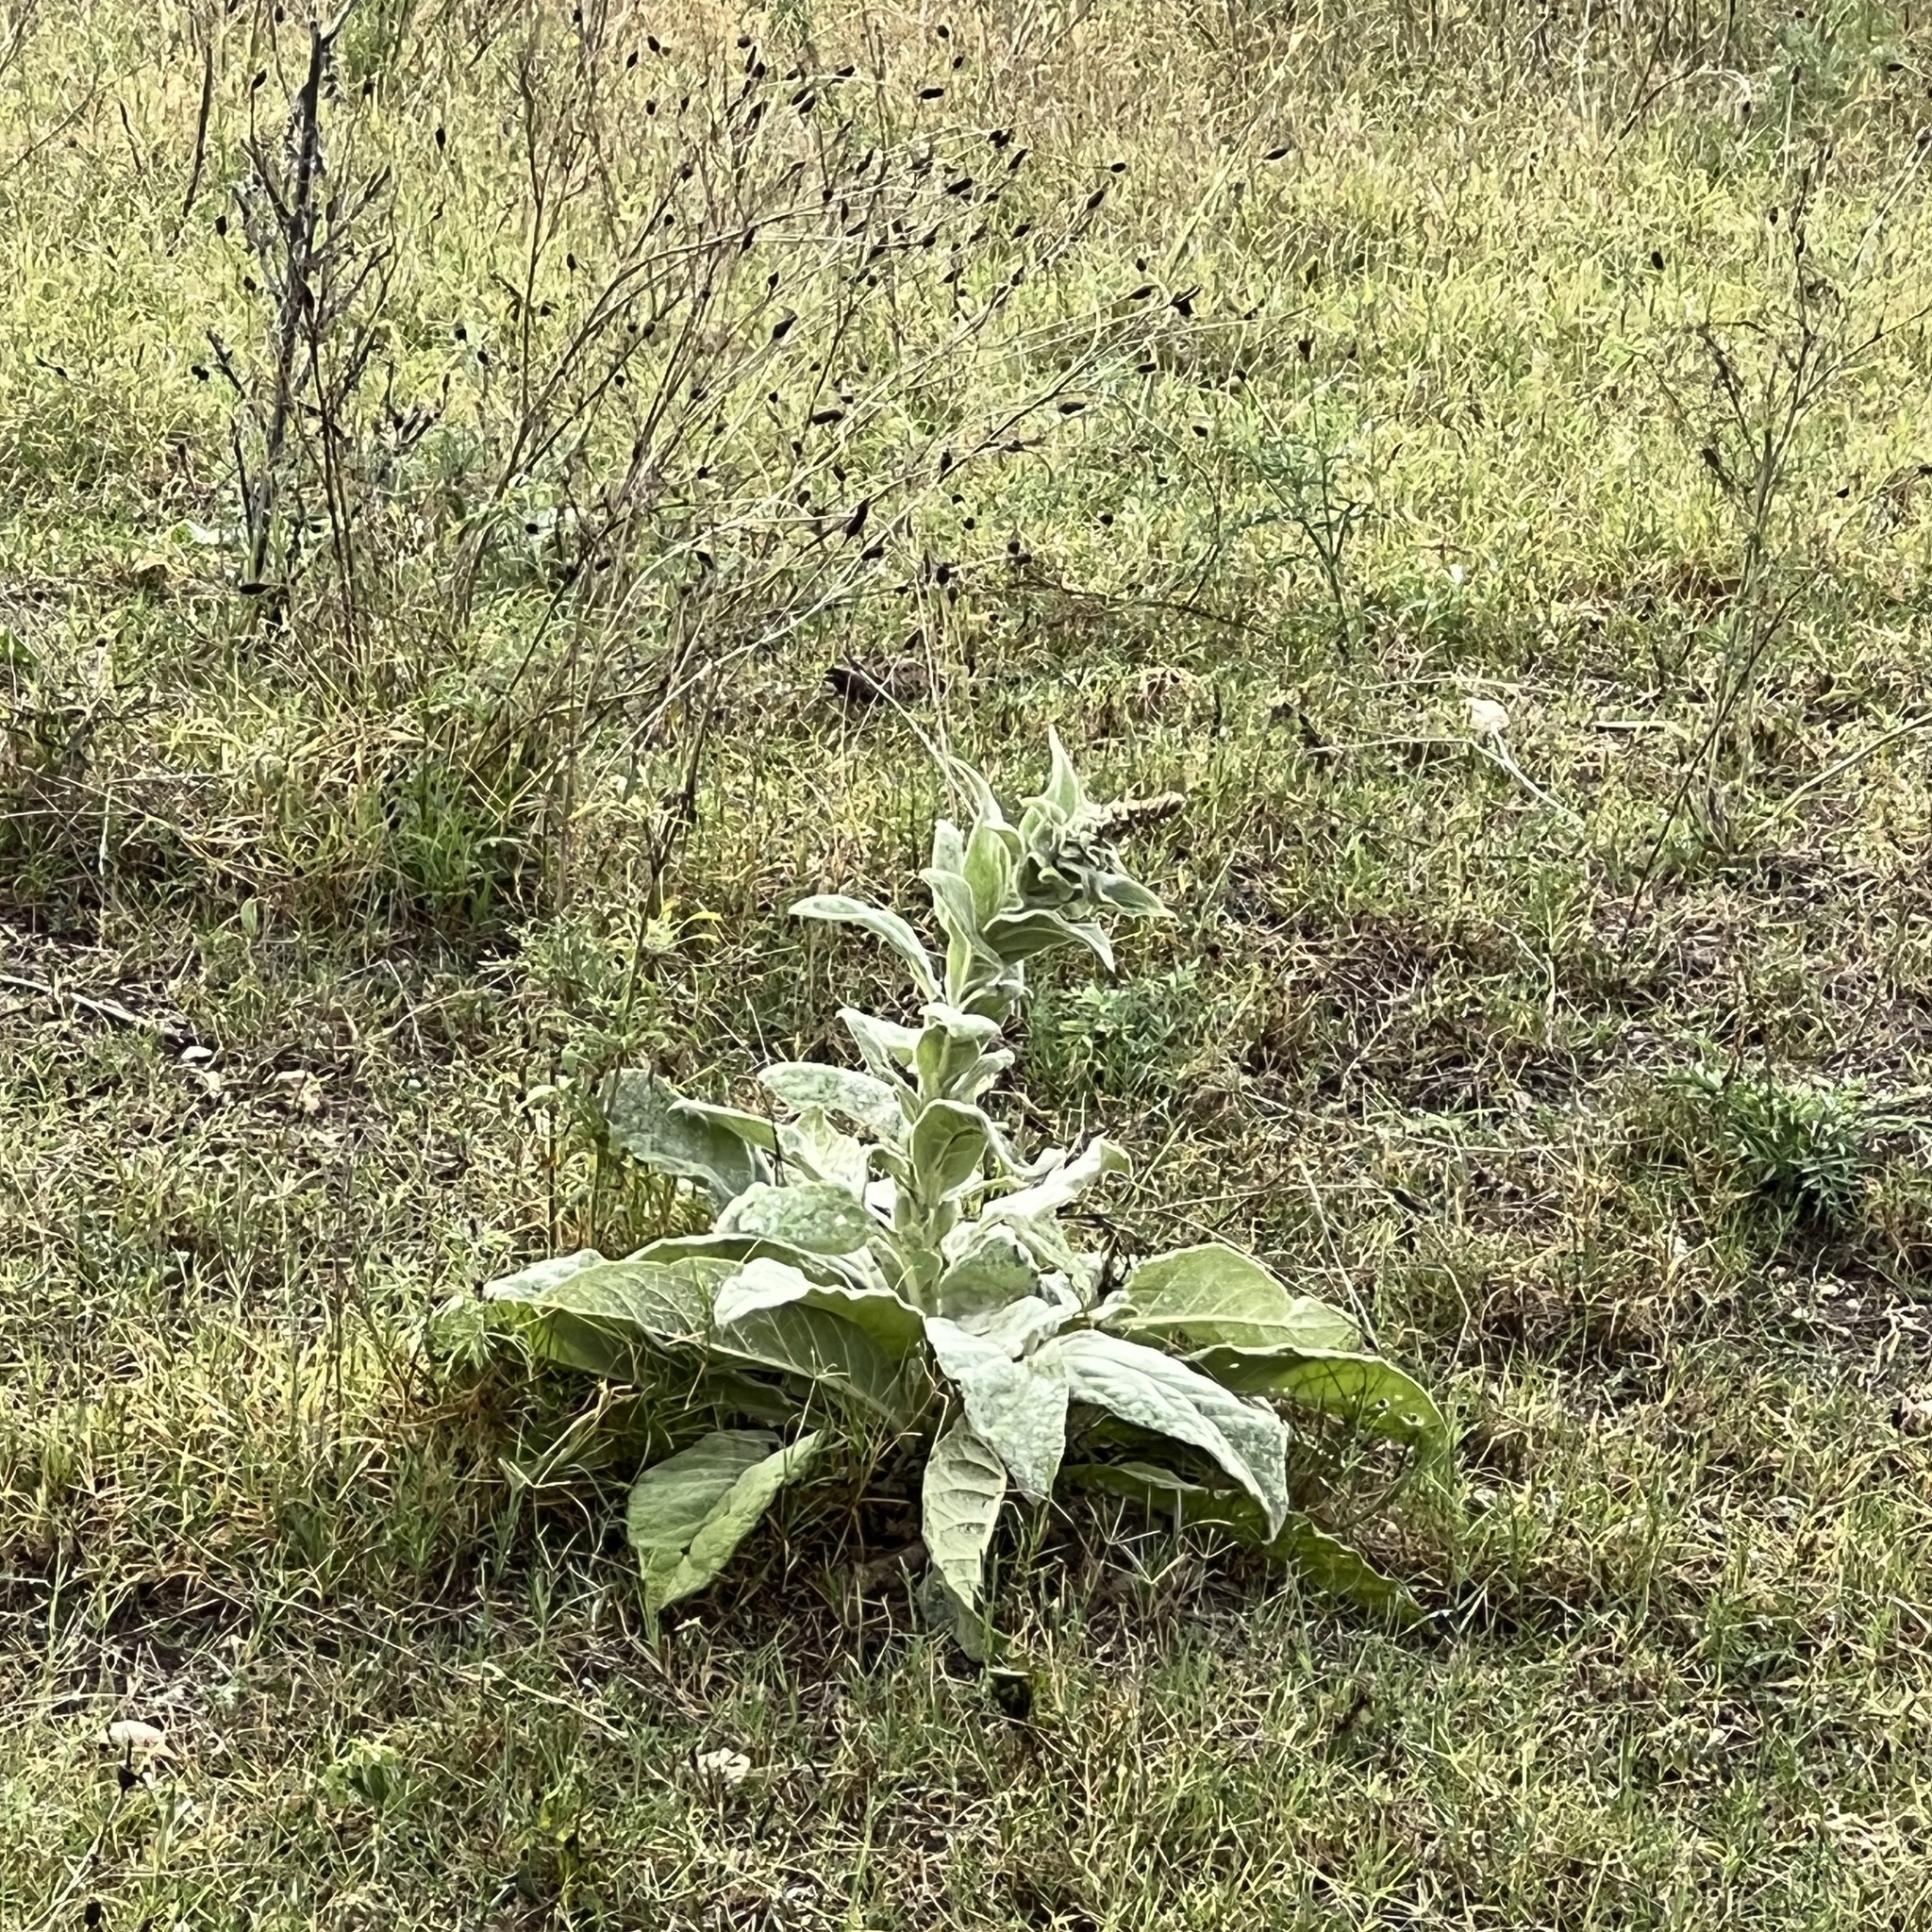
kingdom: Plantae
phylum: Tracheophyta
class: Magnoliopsida
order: Lamiales
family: Scrophulariaceae
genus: Verbascum
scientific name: Verbascum thapsus
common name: Common mullein
